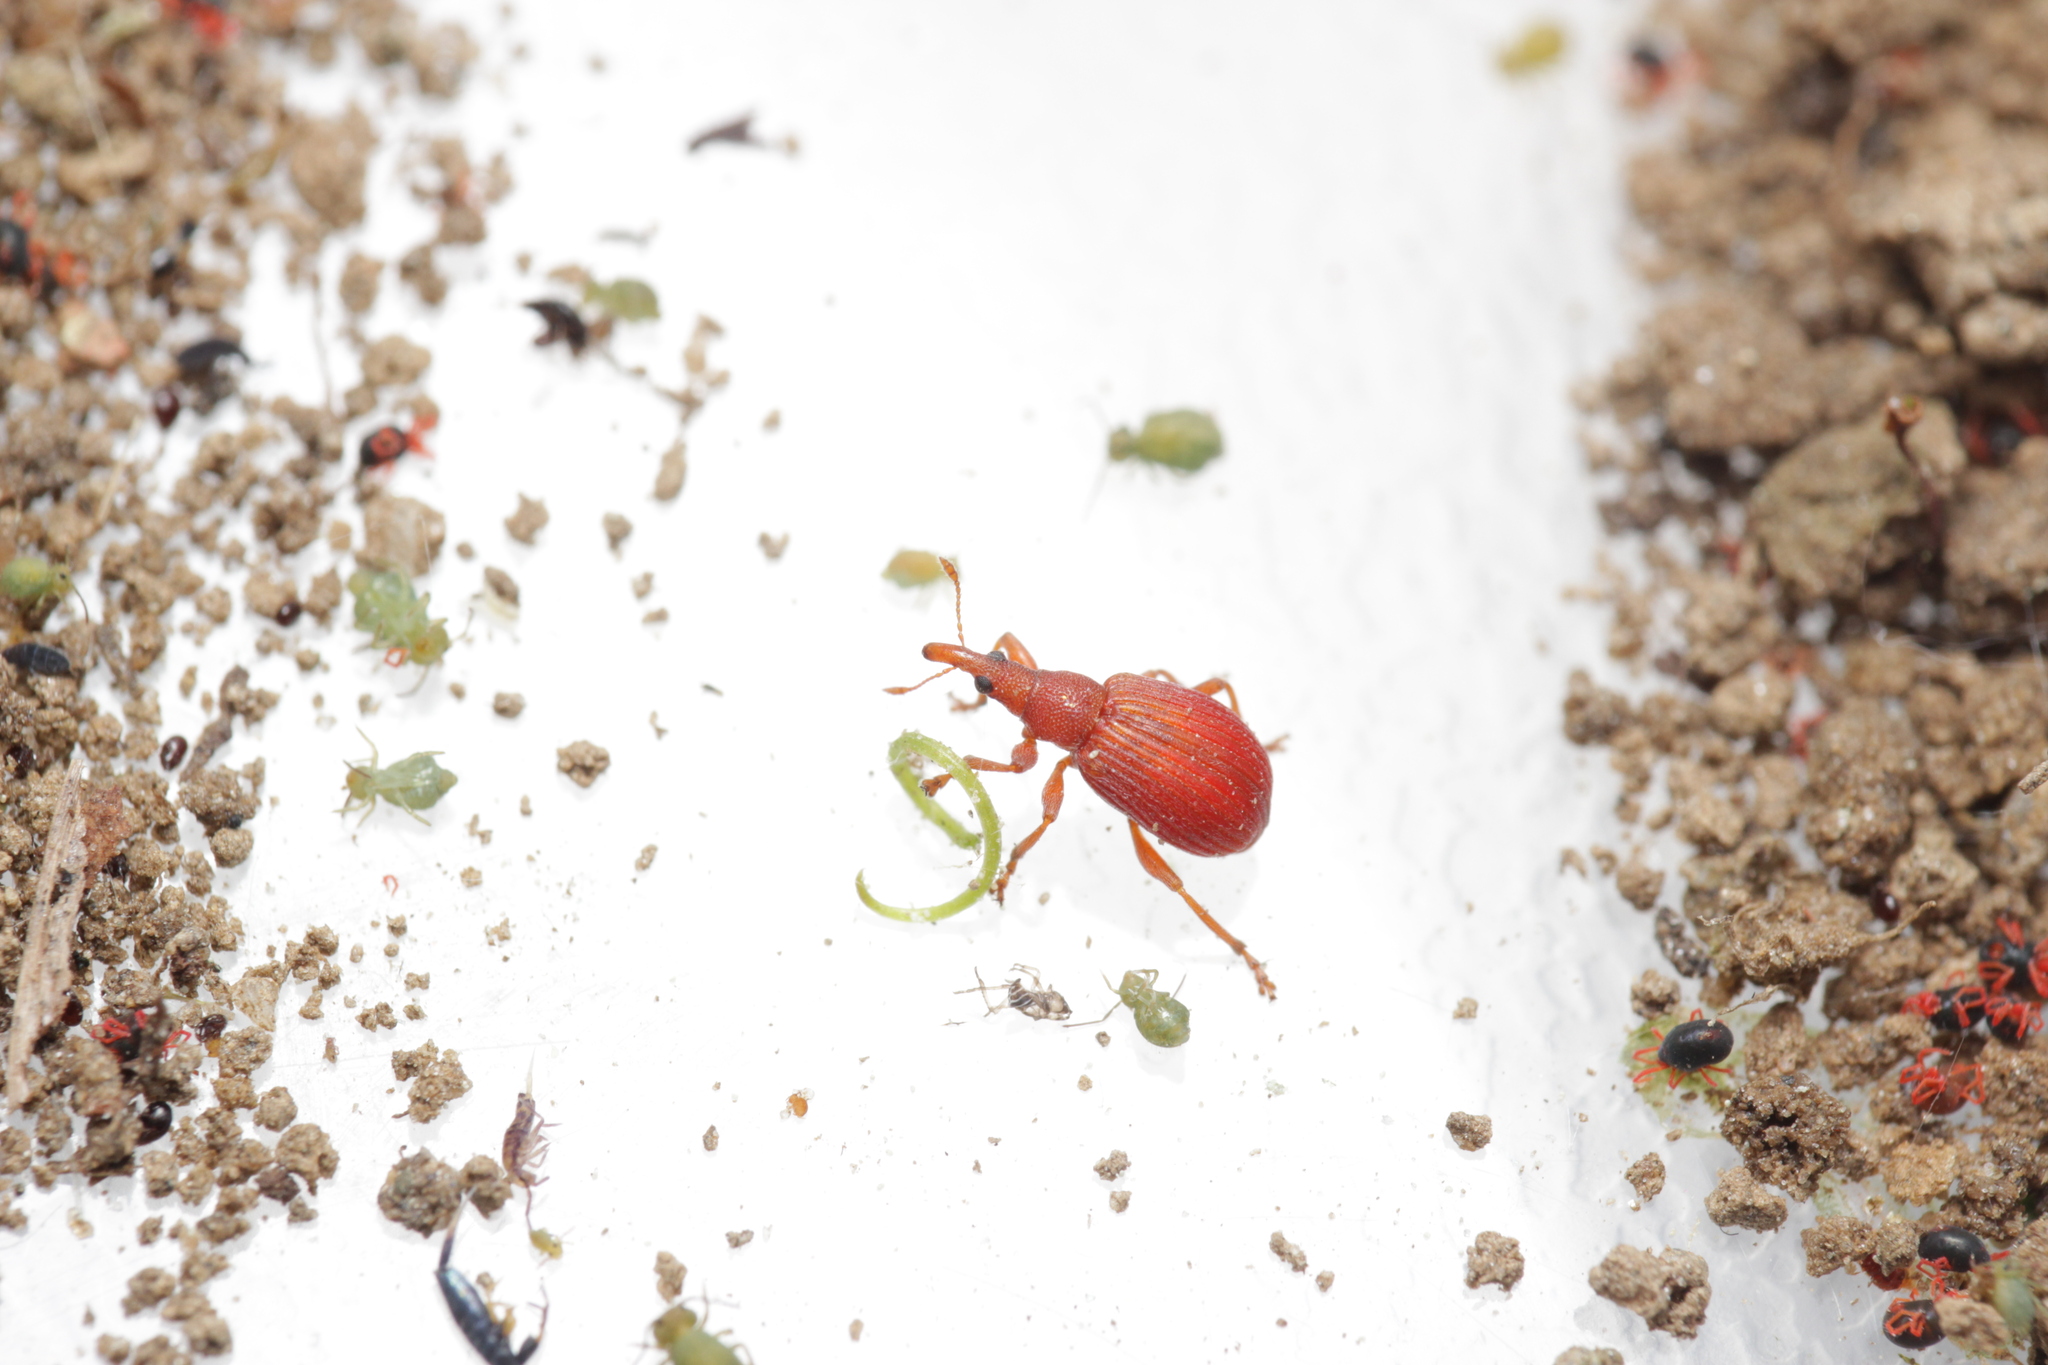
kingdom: Animalia
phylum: Arthropoda
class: Insecta
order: Coleoptera
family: Apionidae
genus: Apion
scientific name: Apion frumentarium
